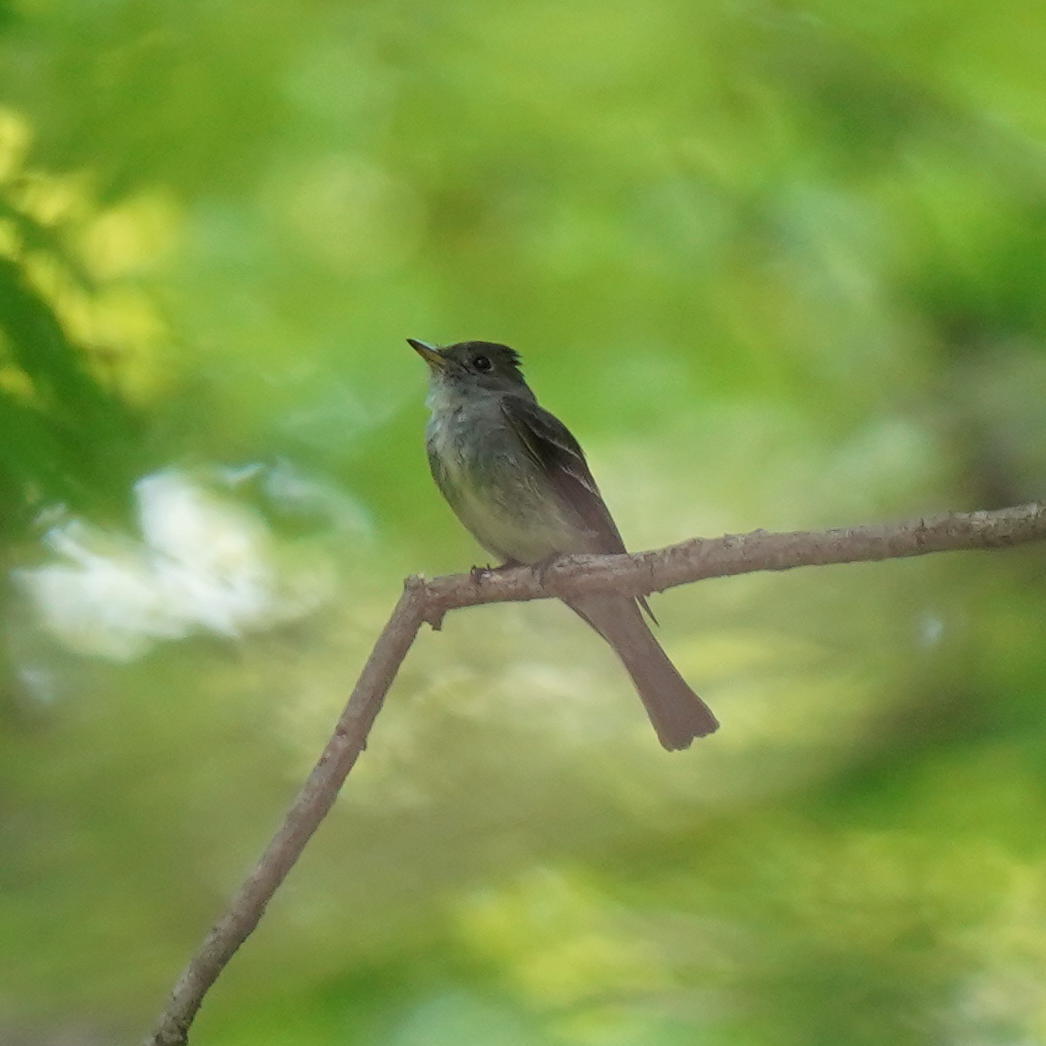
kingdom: Animalia
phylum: Chordata
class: Aves
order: Passeriformes
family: Tyrannidae
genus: Contopus
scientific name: Contopus virens
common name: Eastern wood-pewee
